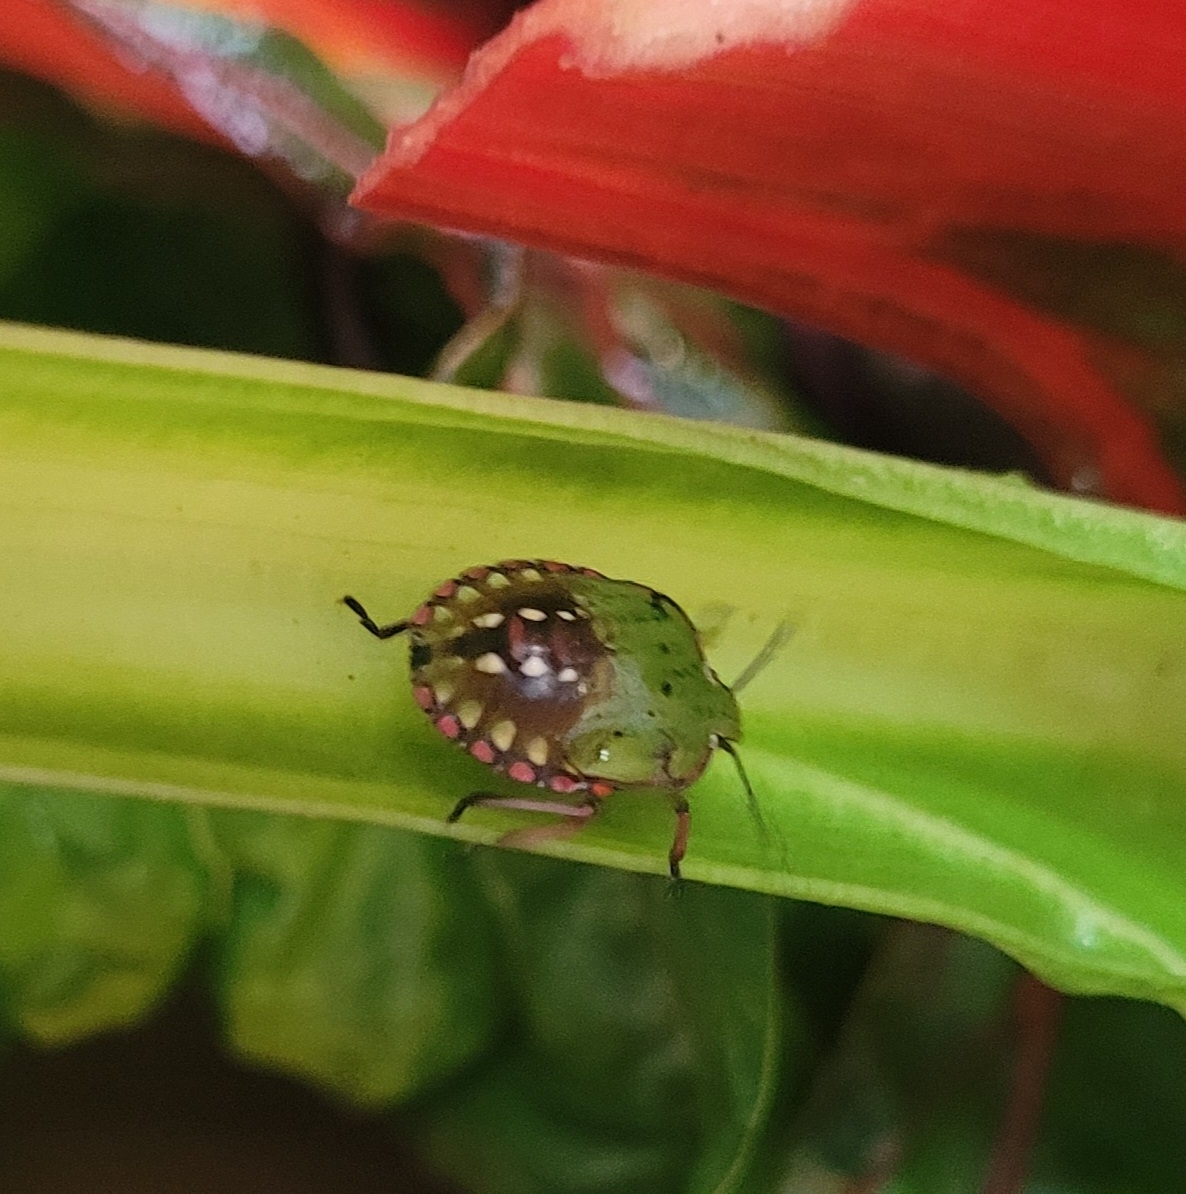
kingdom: Animalia
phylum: Arthropoda
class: Insecta
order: Hemiptera
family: Pentatomidae
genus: Nezara
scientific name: Nezara viridula
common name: Southern green stink bug
